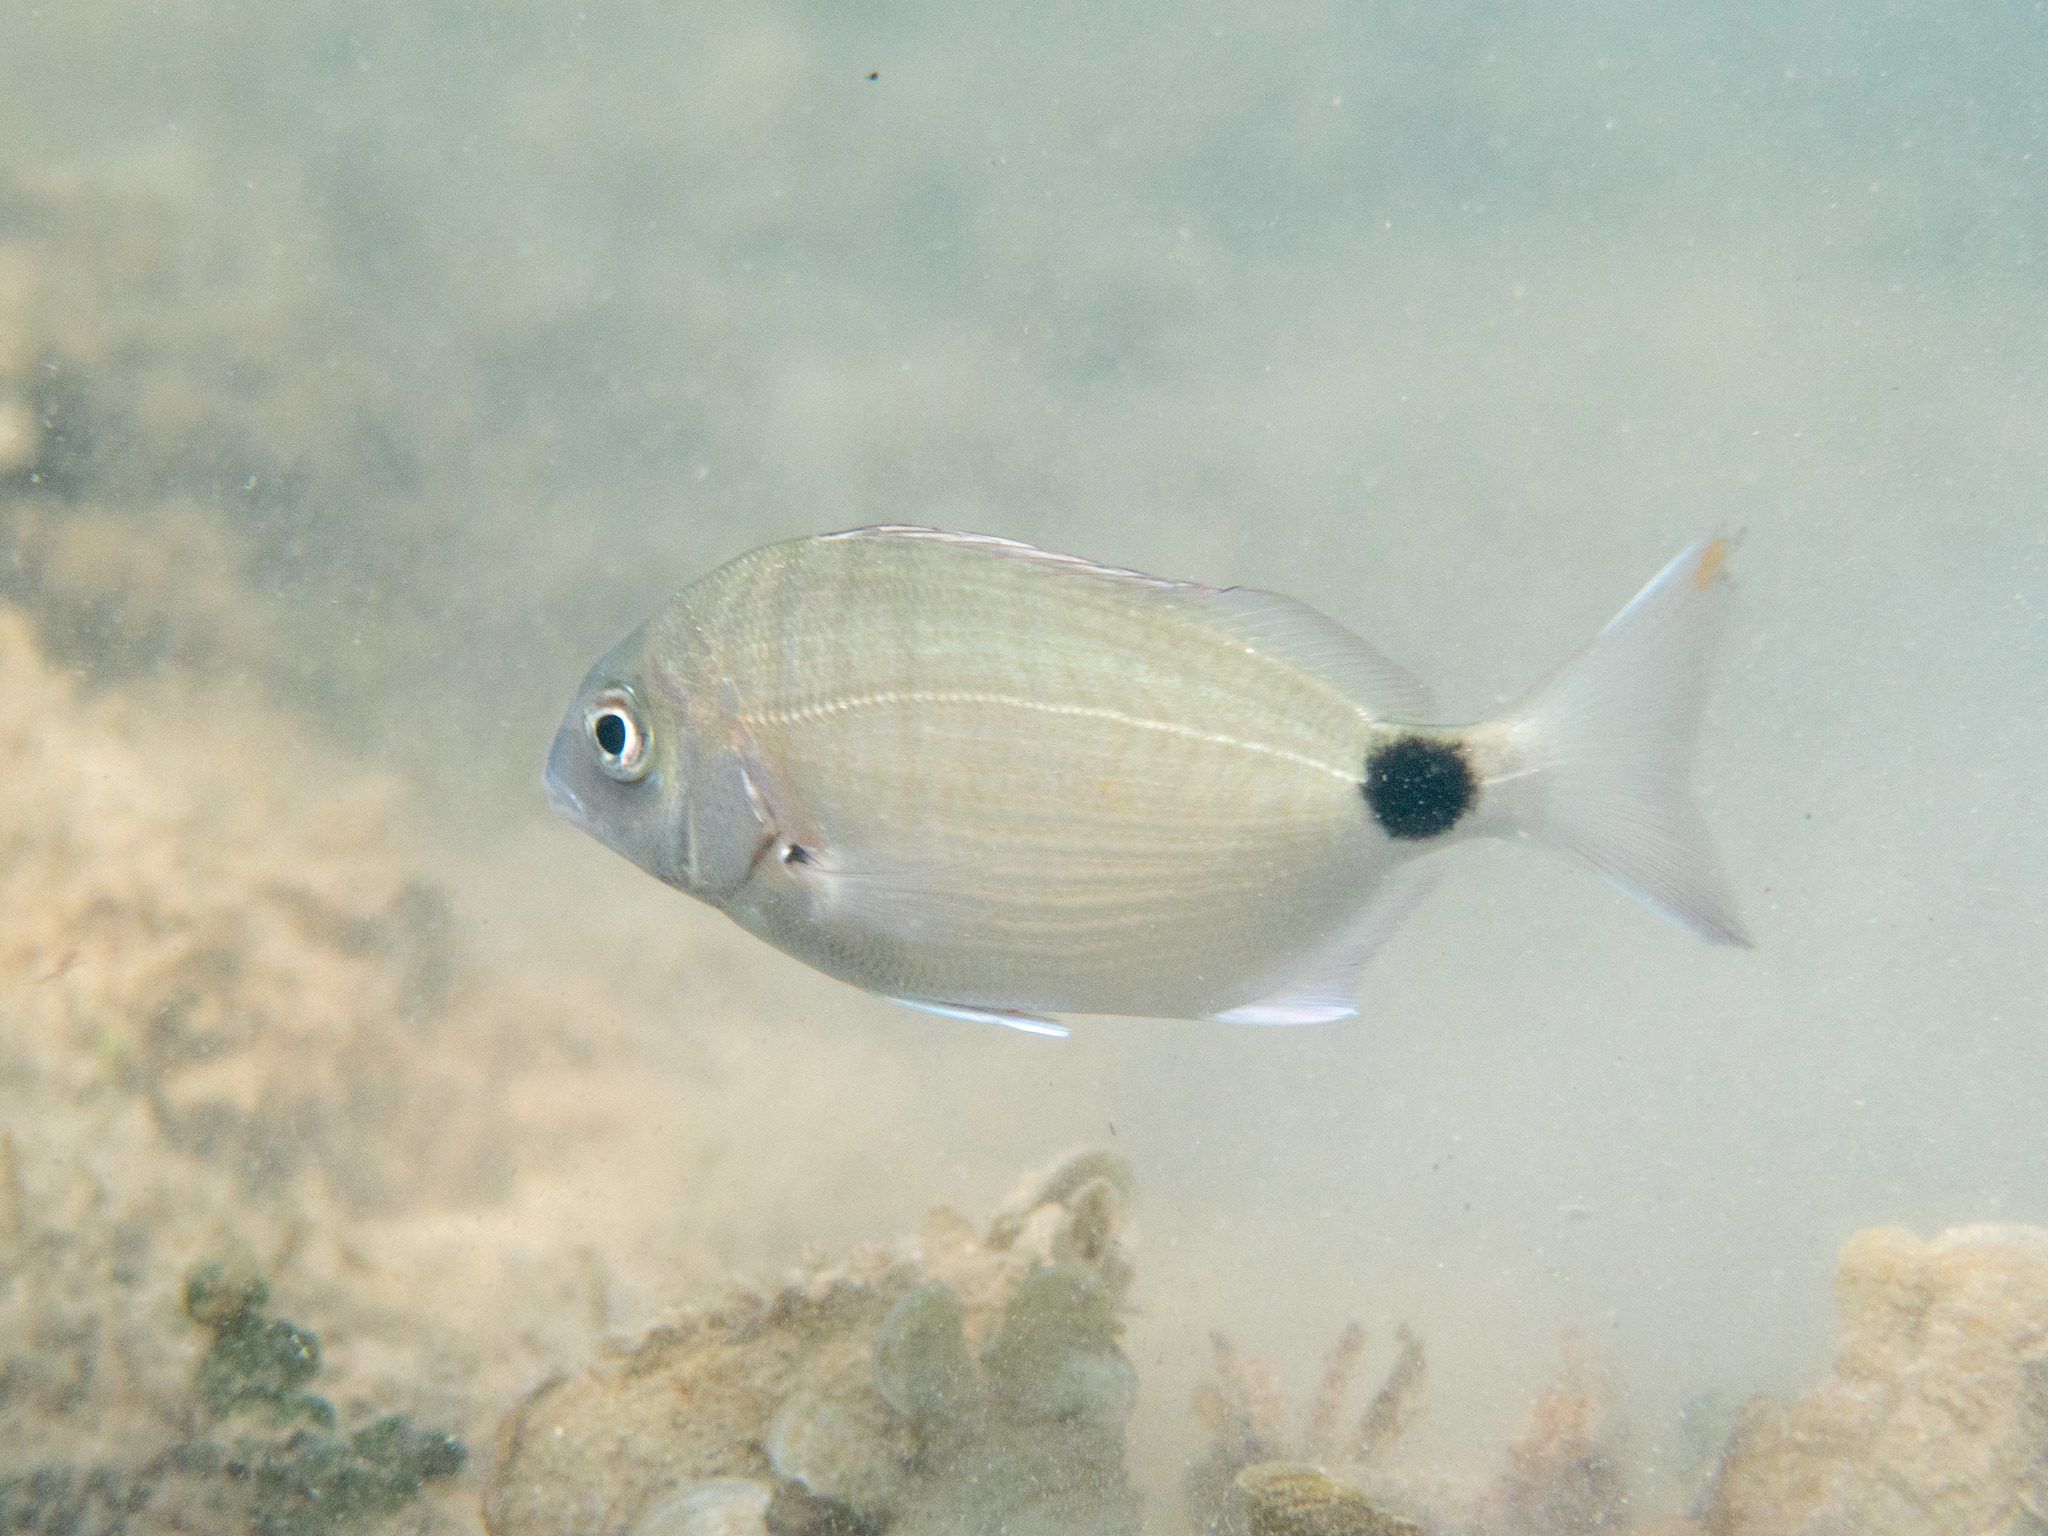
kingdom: Animalia
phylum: Chordata
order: Perciformes
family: Sparidae
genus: Diplodus
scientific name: Diplodus sargus
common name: White seabream
